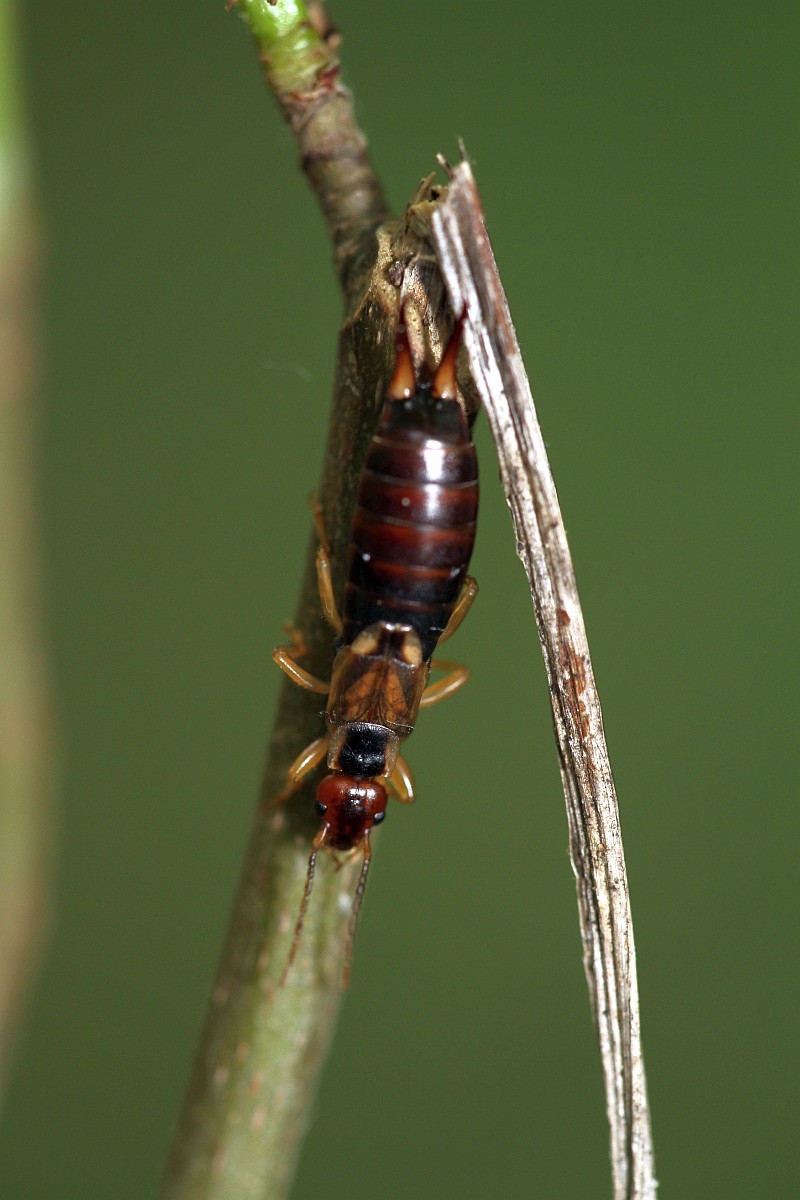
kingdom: Animalia
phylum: Arthropoda
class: Insecta
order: Dermaptera
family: Forficulidae
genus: Forficula
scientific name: Forficula
